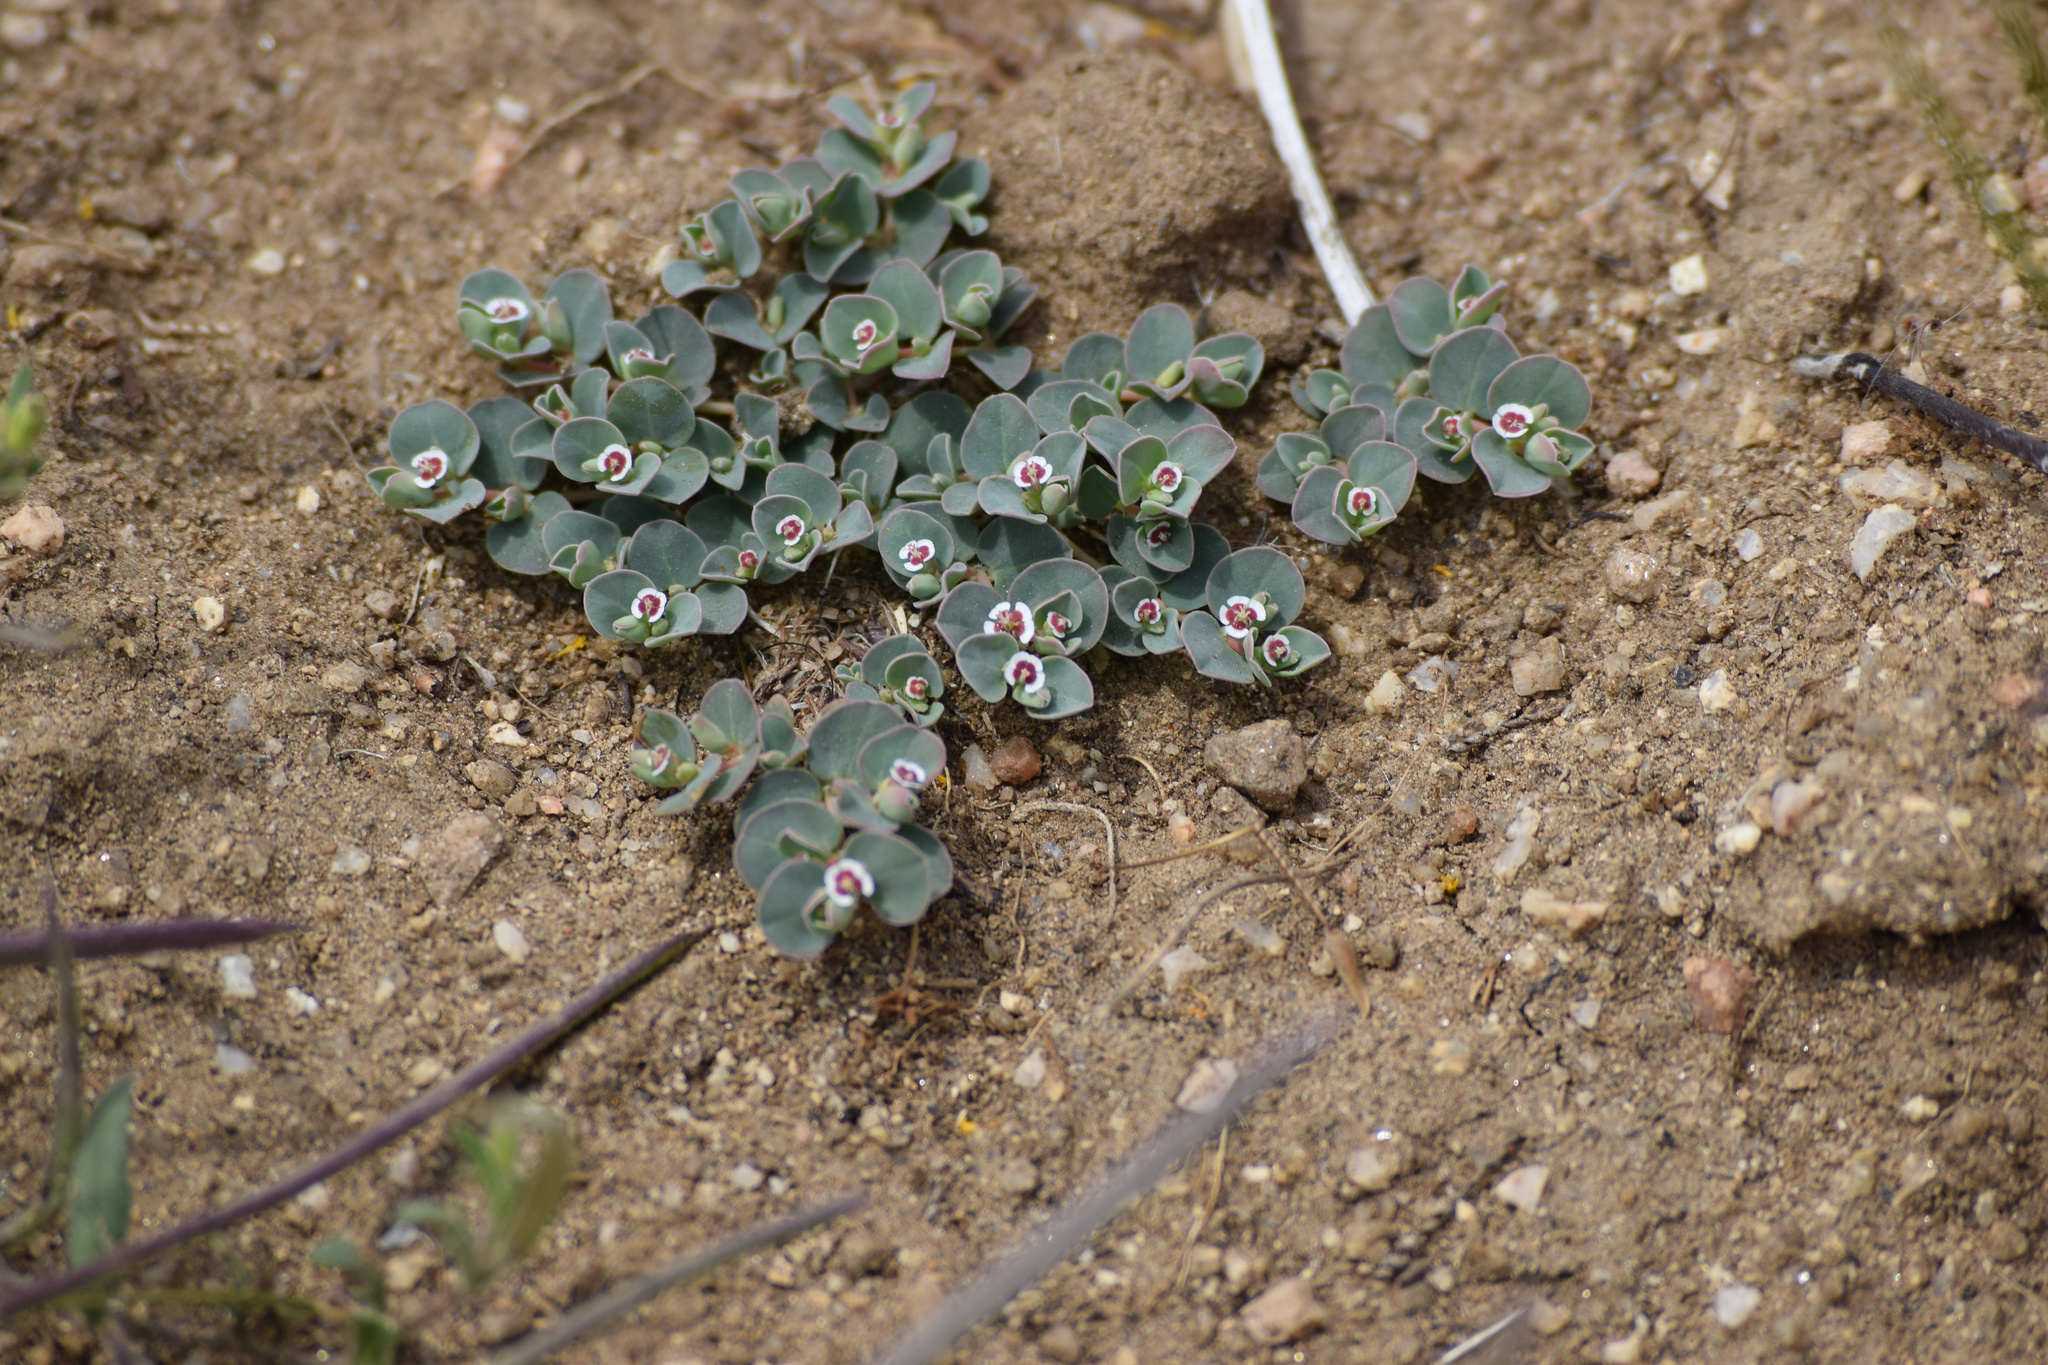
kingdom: Plantae
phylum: Tracheophyta
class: Magnoliopsida
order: Malpighiales
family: Euphorbiaceae
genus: Euphorbia
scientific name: Euphorbia albomarginata
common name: Whitemargin sandmat
